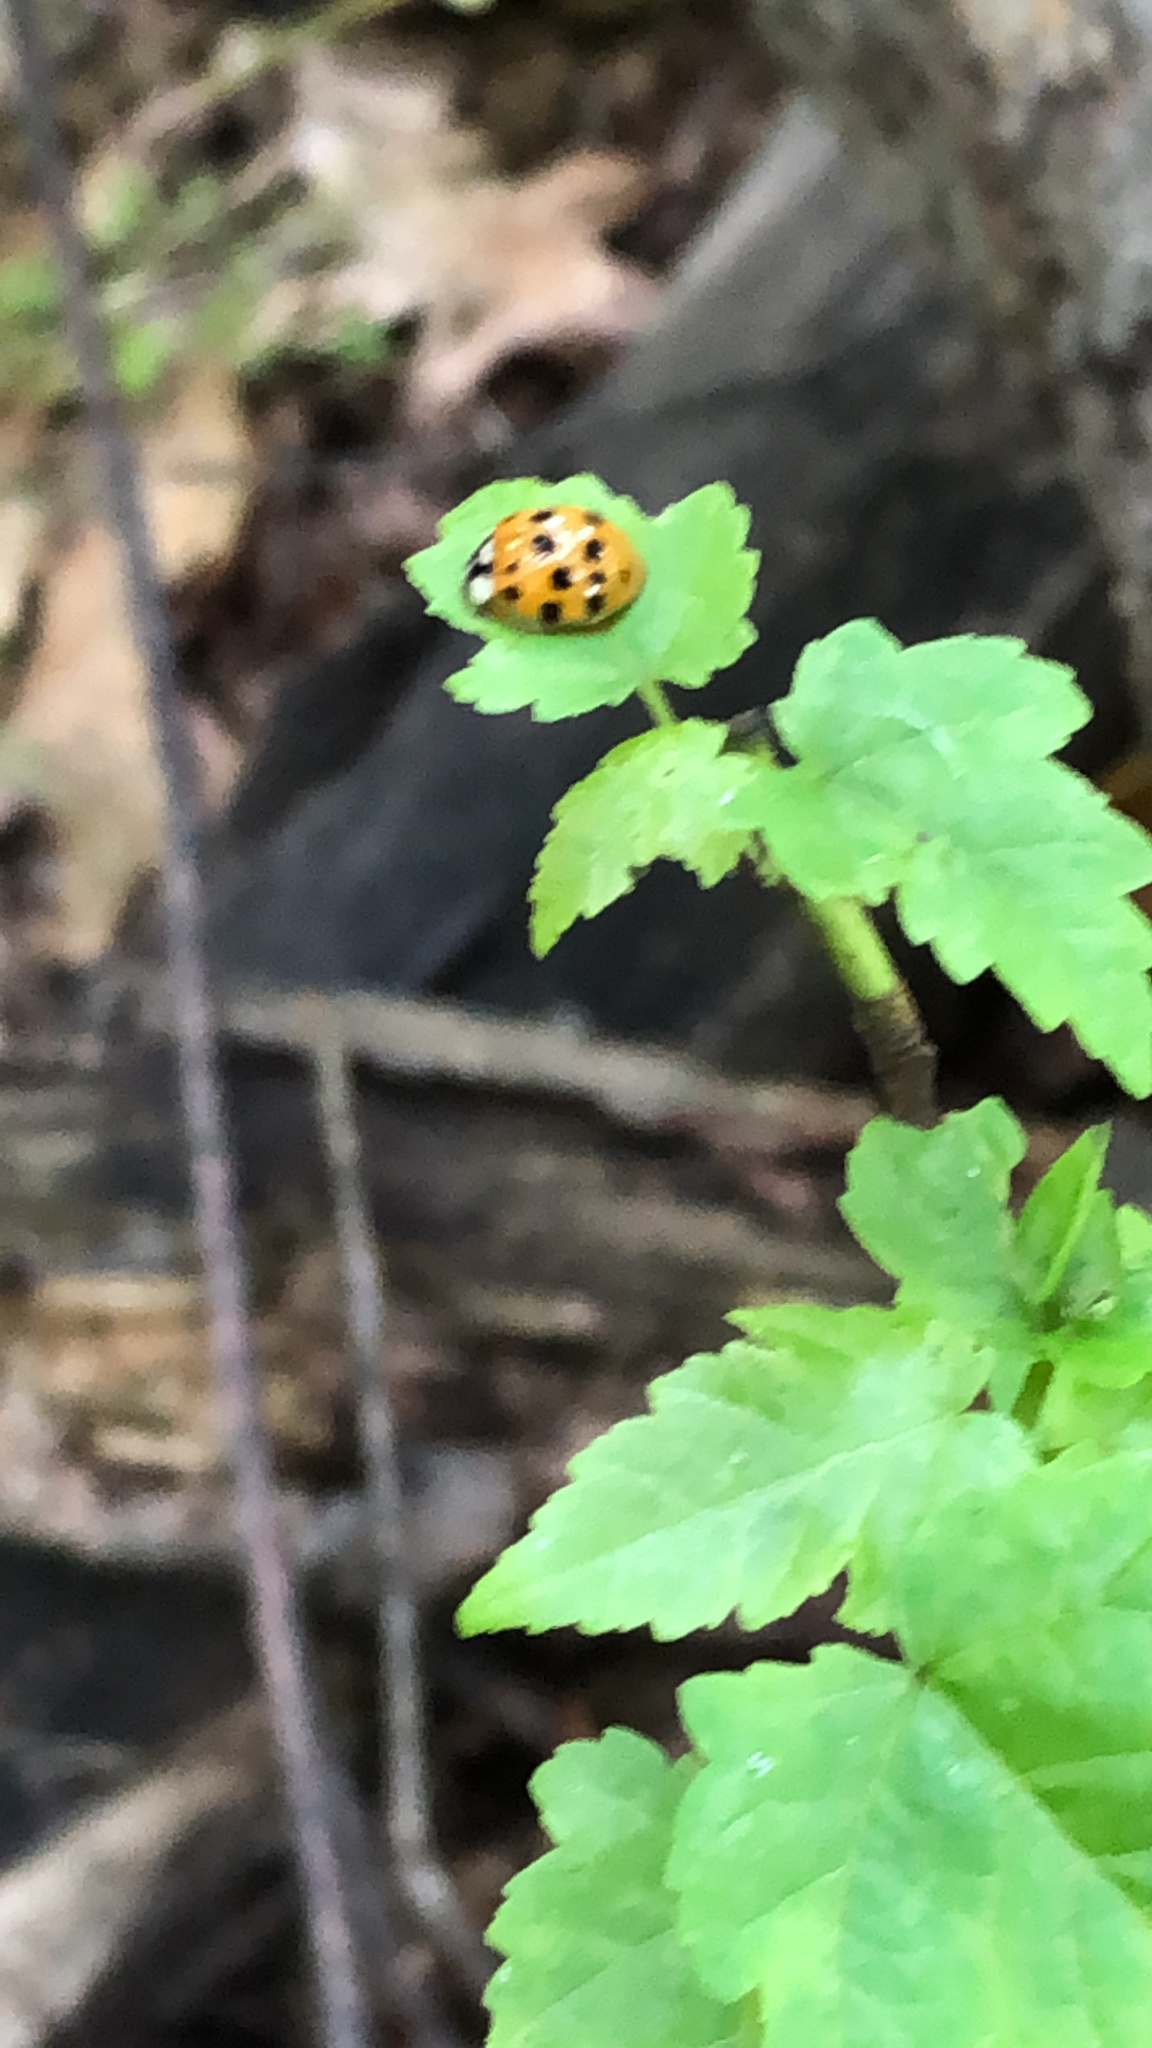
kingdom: Animalia
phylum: Arthropoda
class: Insecta
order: Coleoptera
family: Coccinellidae
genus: Harmonia
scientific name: Harmonia axyridis
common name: Harlequin ladybird
